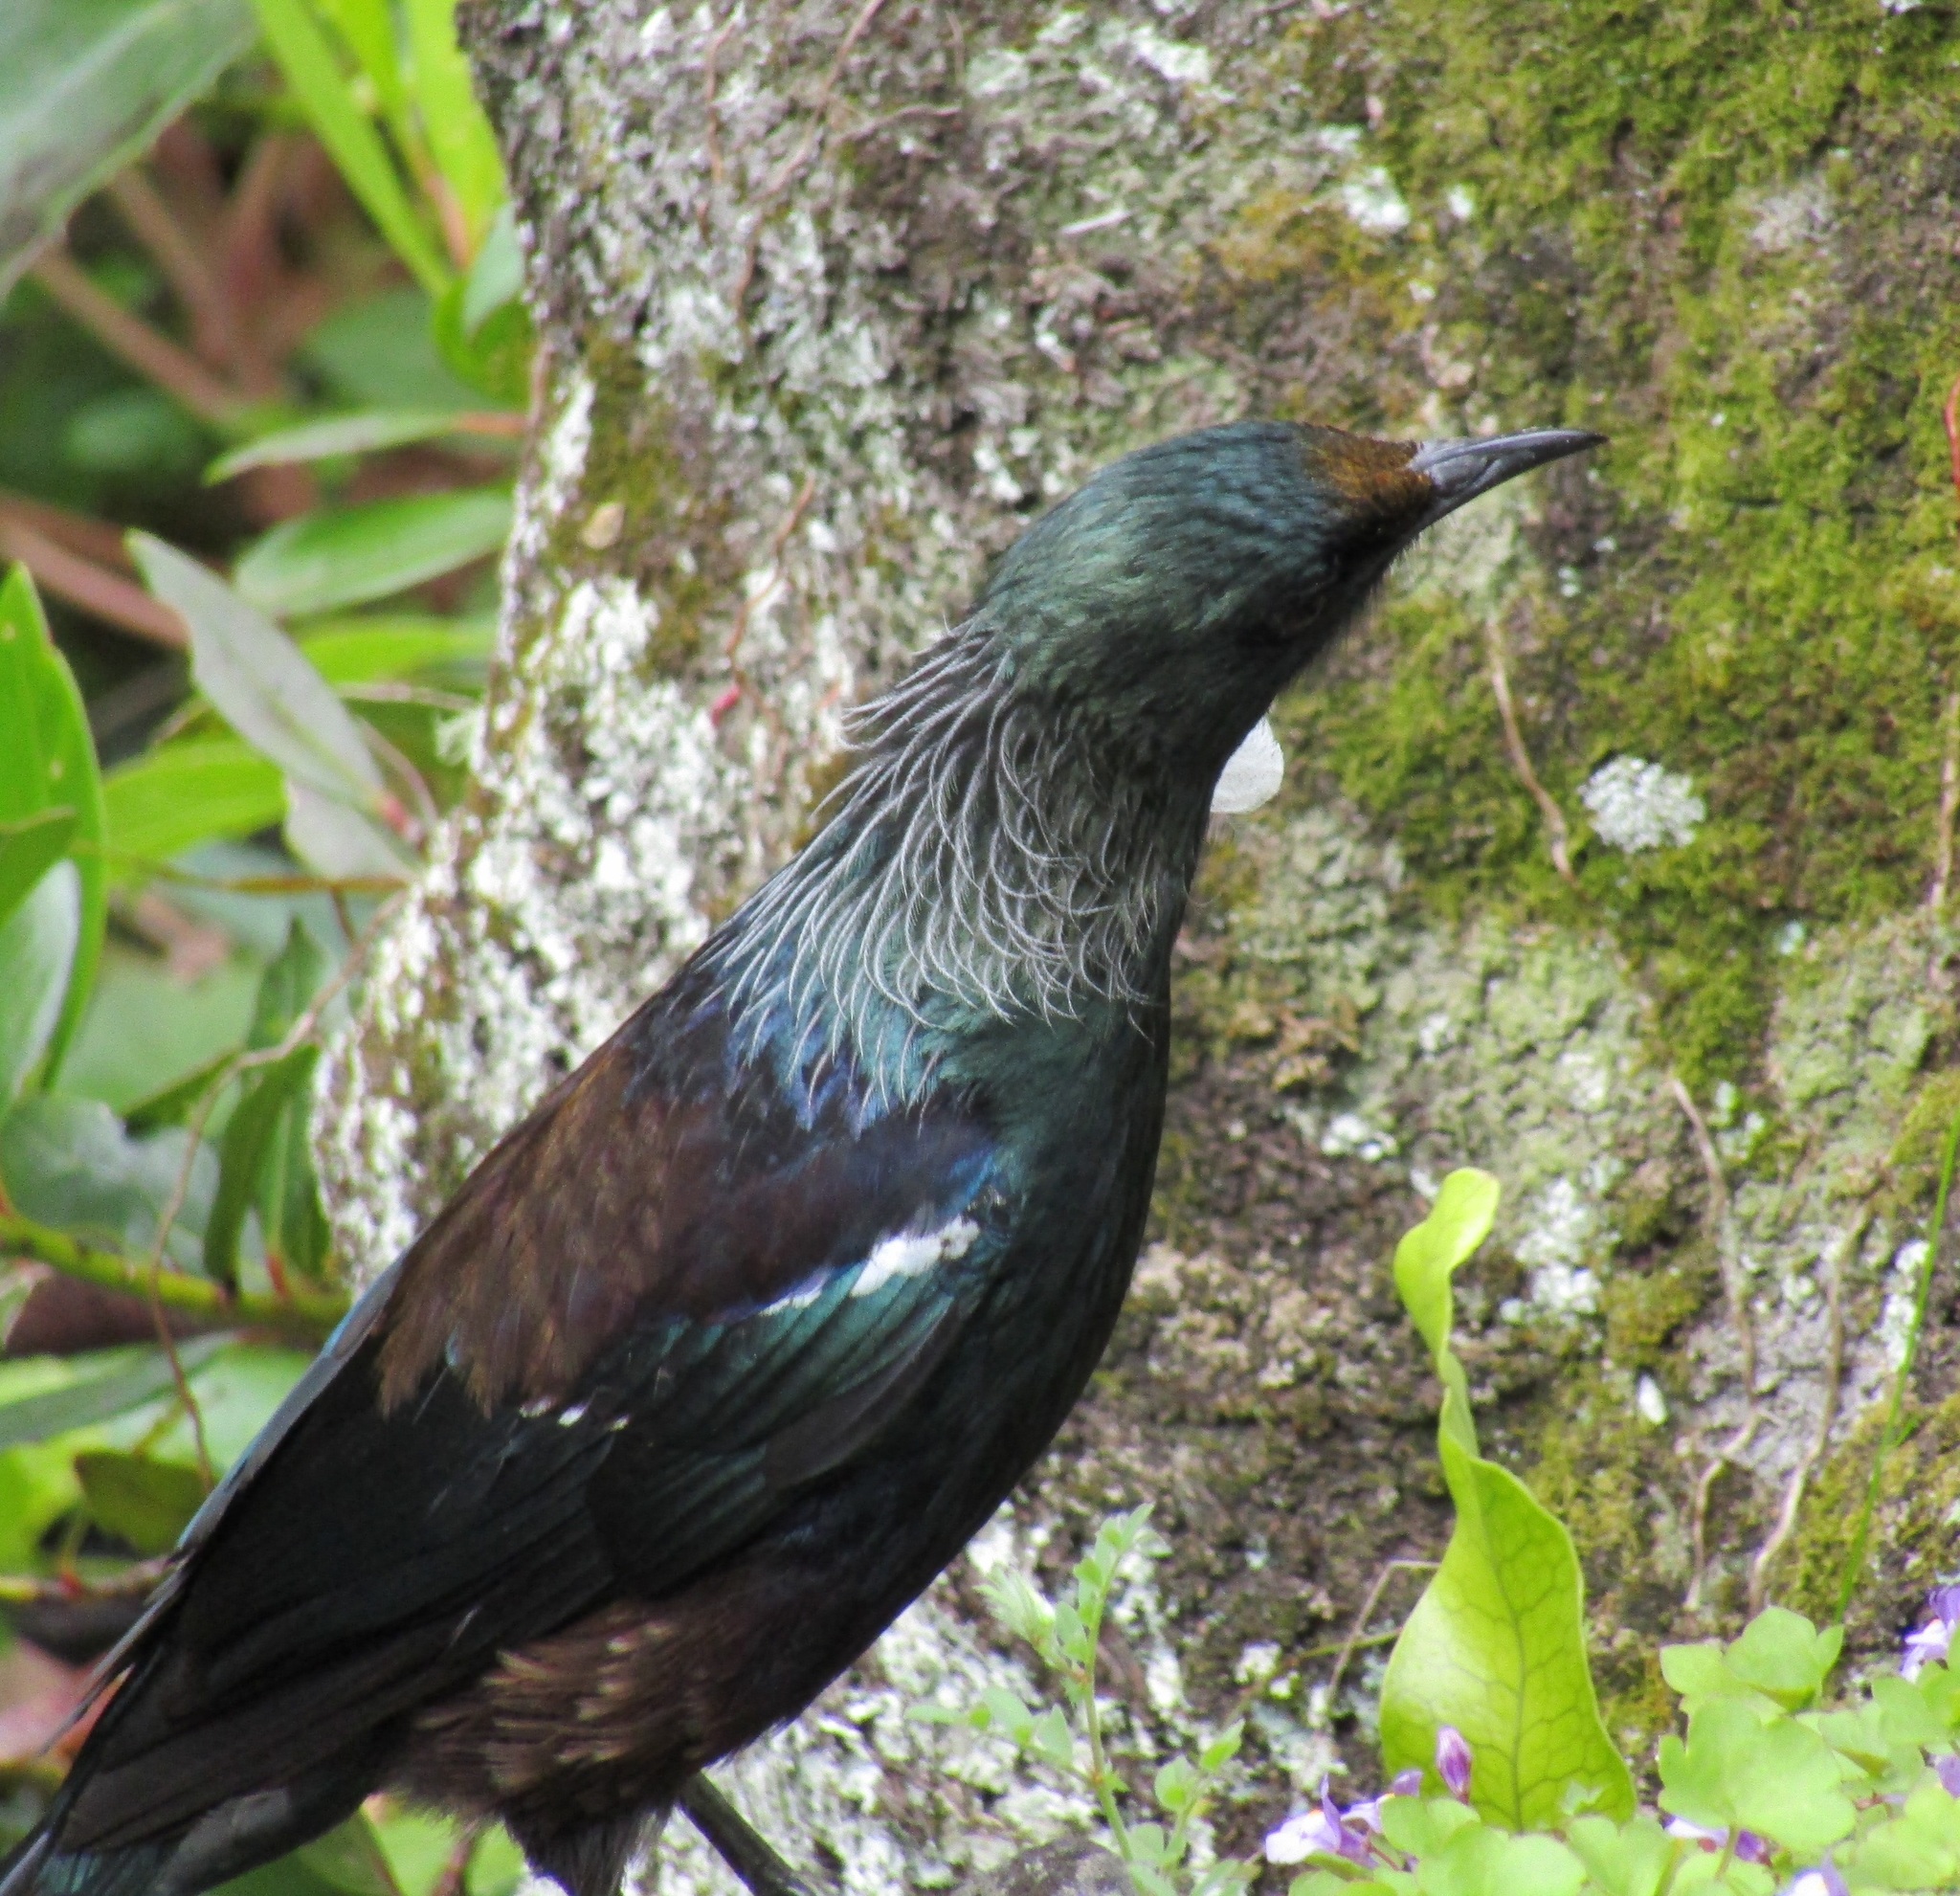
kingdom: Animalia
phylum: Chordata
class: Aves
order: Passeriformes
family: Meliphagidae
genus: Prosthemadera
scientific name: Prosthemadera novaeseelandiae
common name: Tui
